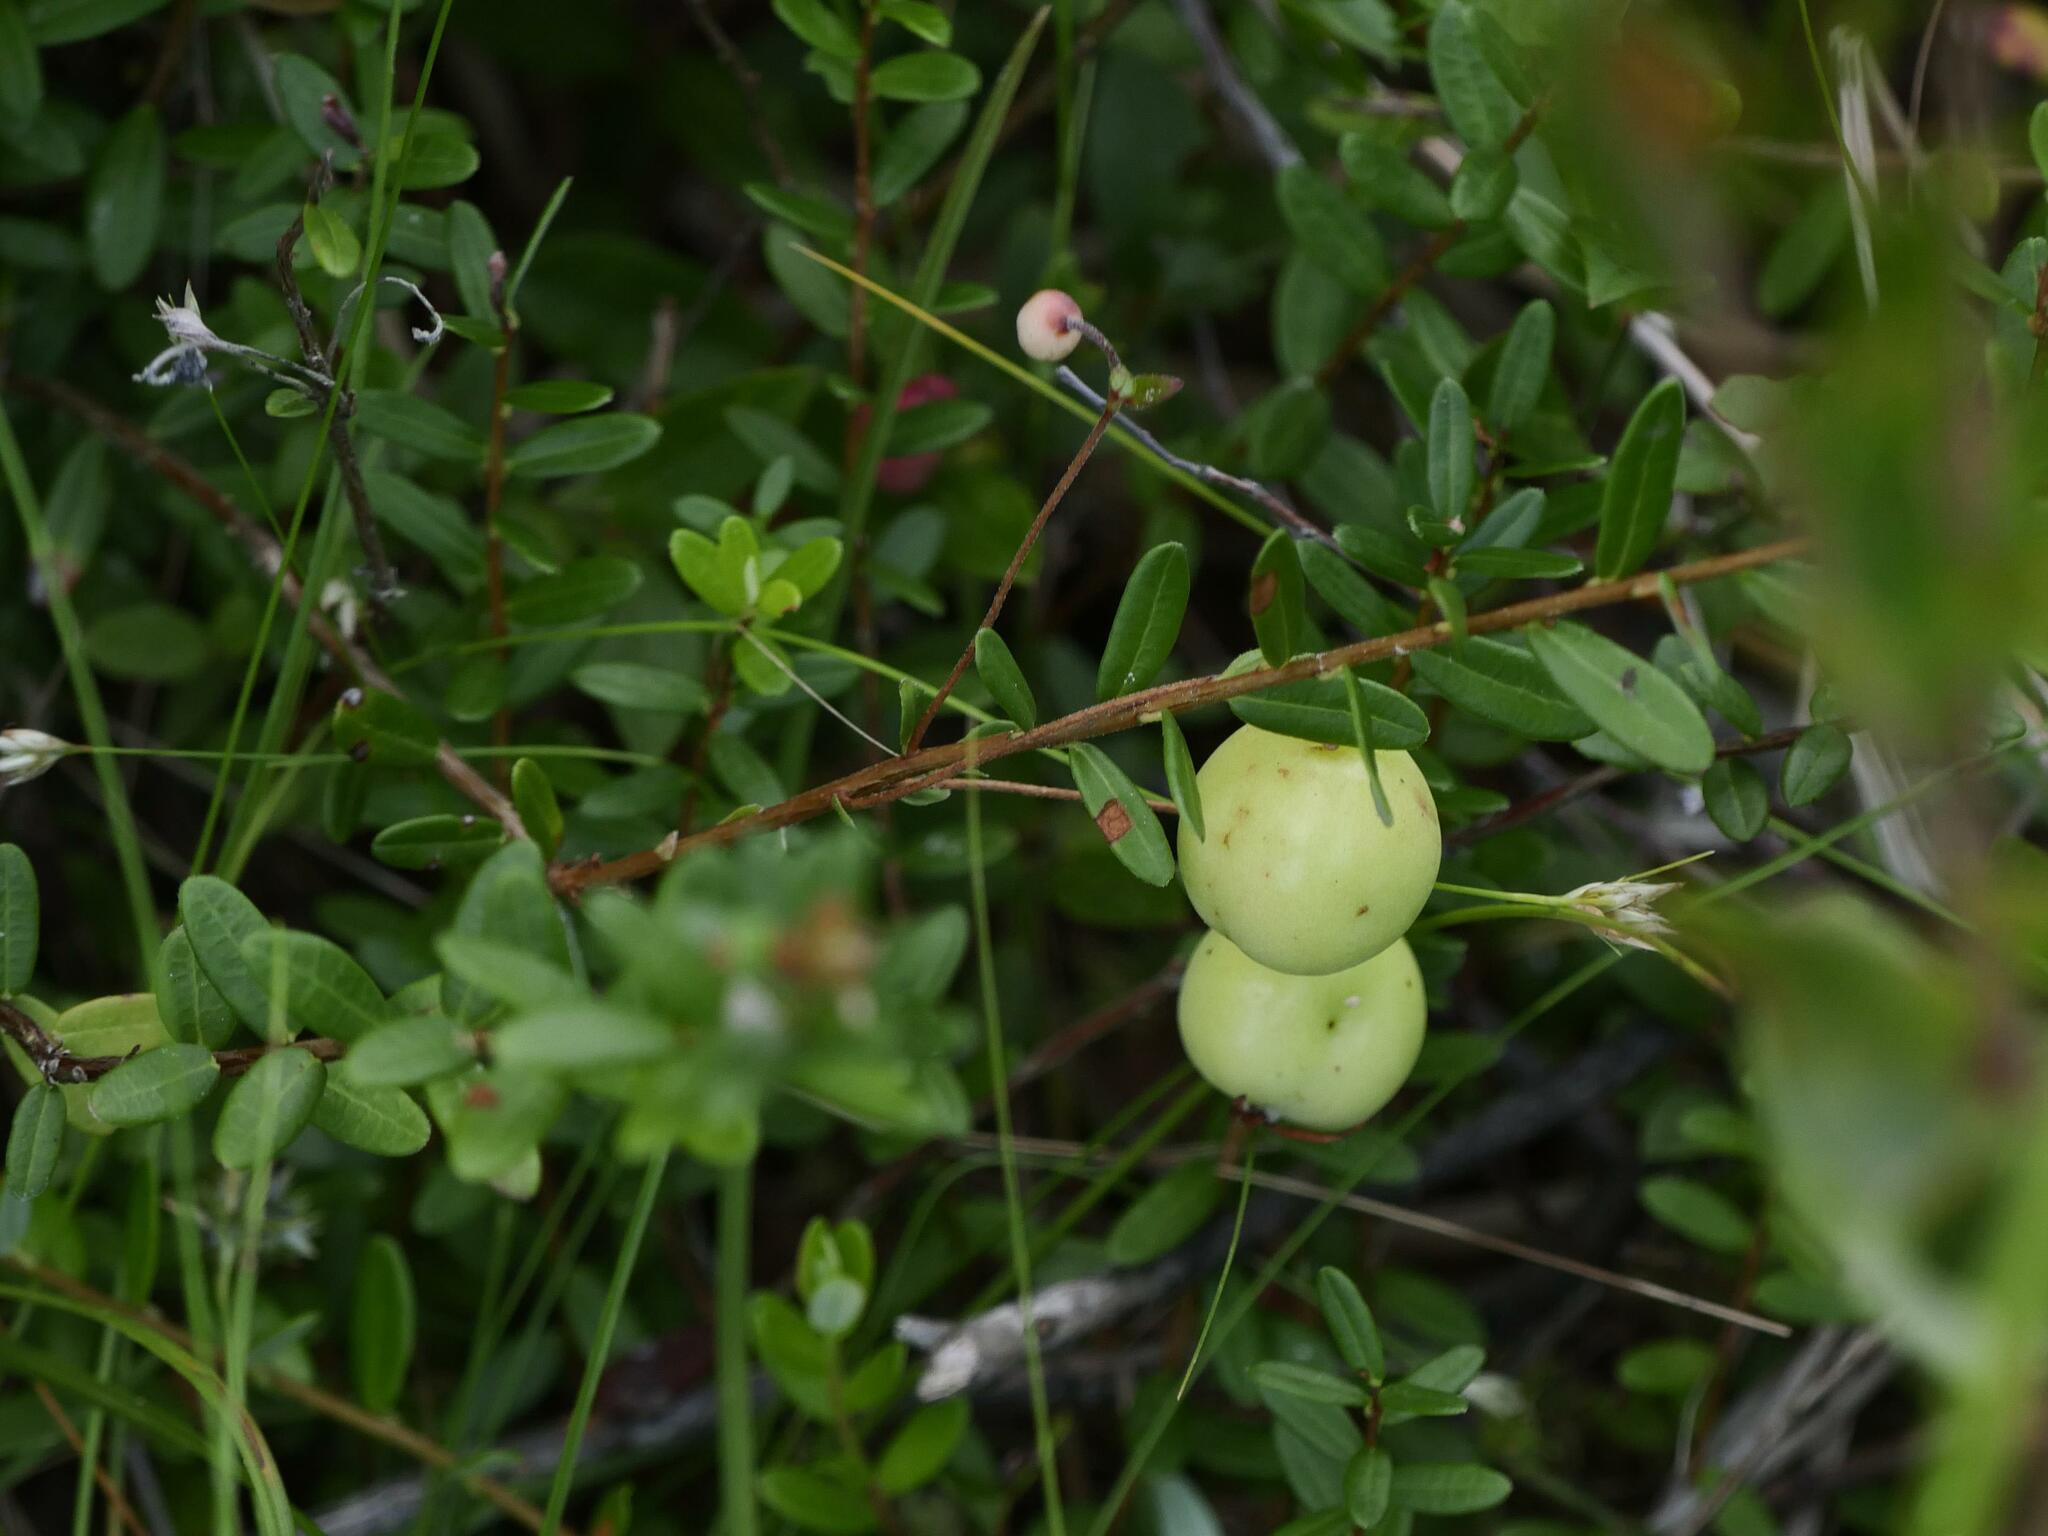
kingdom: Plantae
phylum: Tracheophyta
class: Magnoliopsida
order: Ericales
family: Ericaceae
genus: Vaccinium
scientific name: Vaccinium macrocarpon
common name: American cranberry
